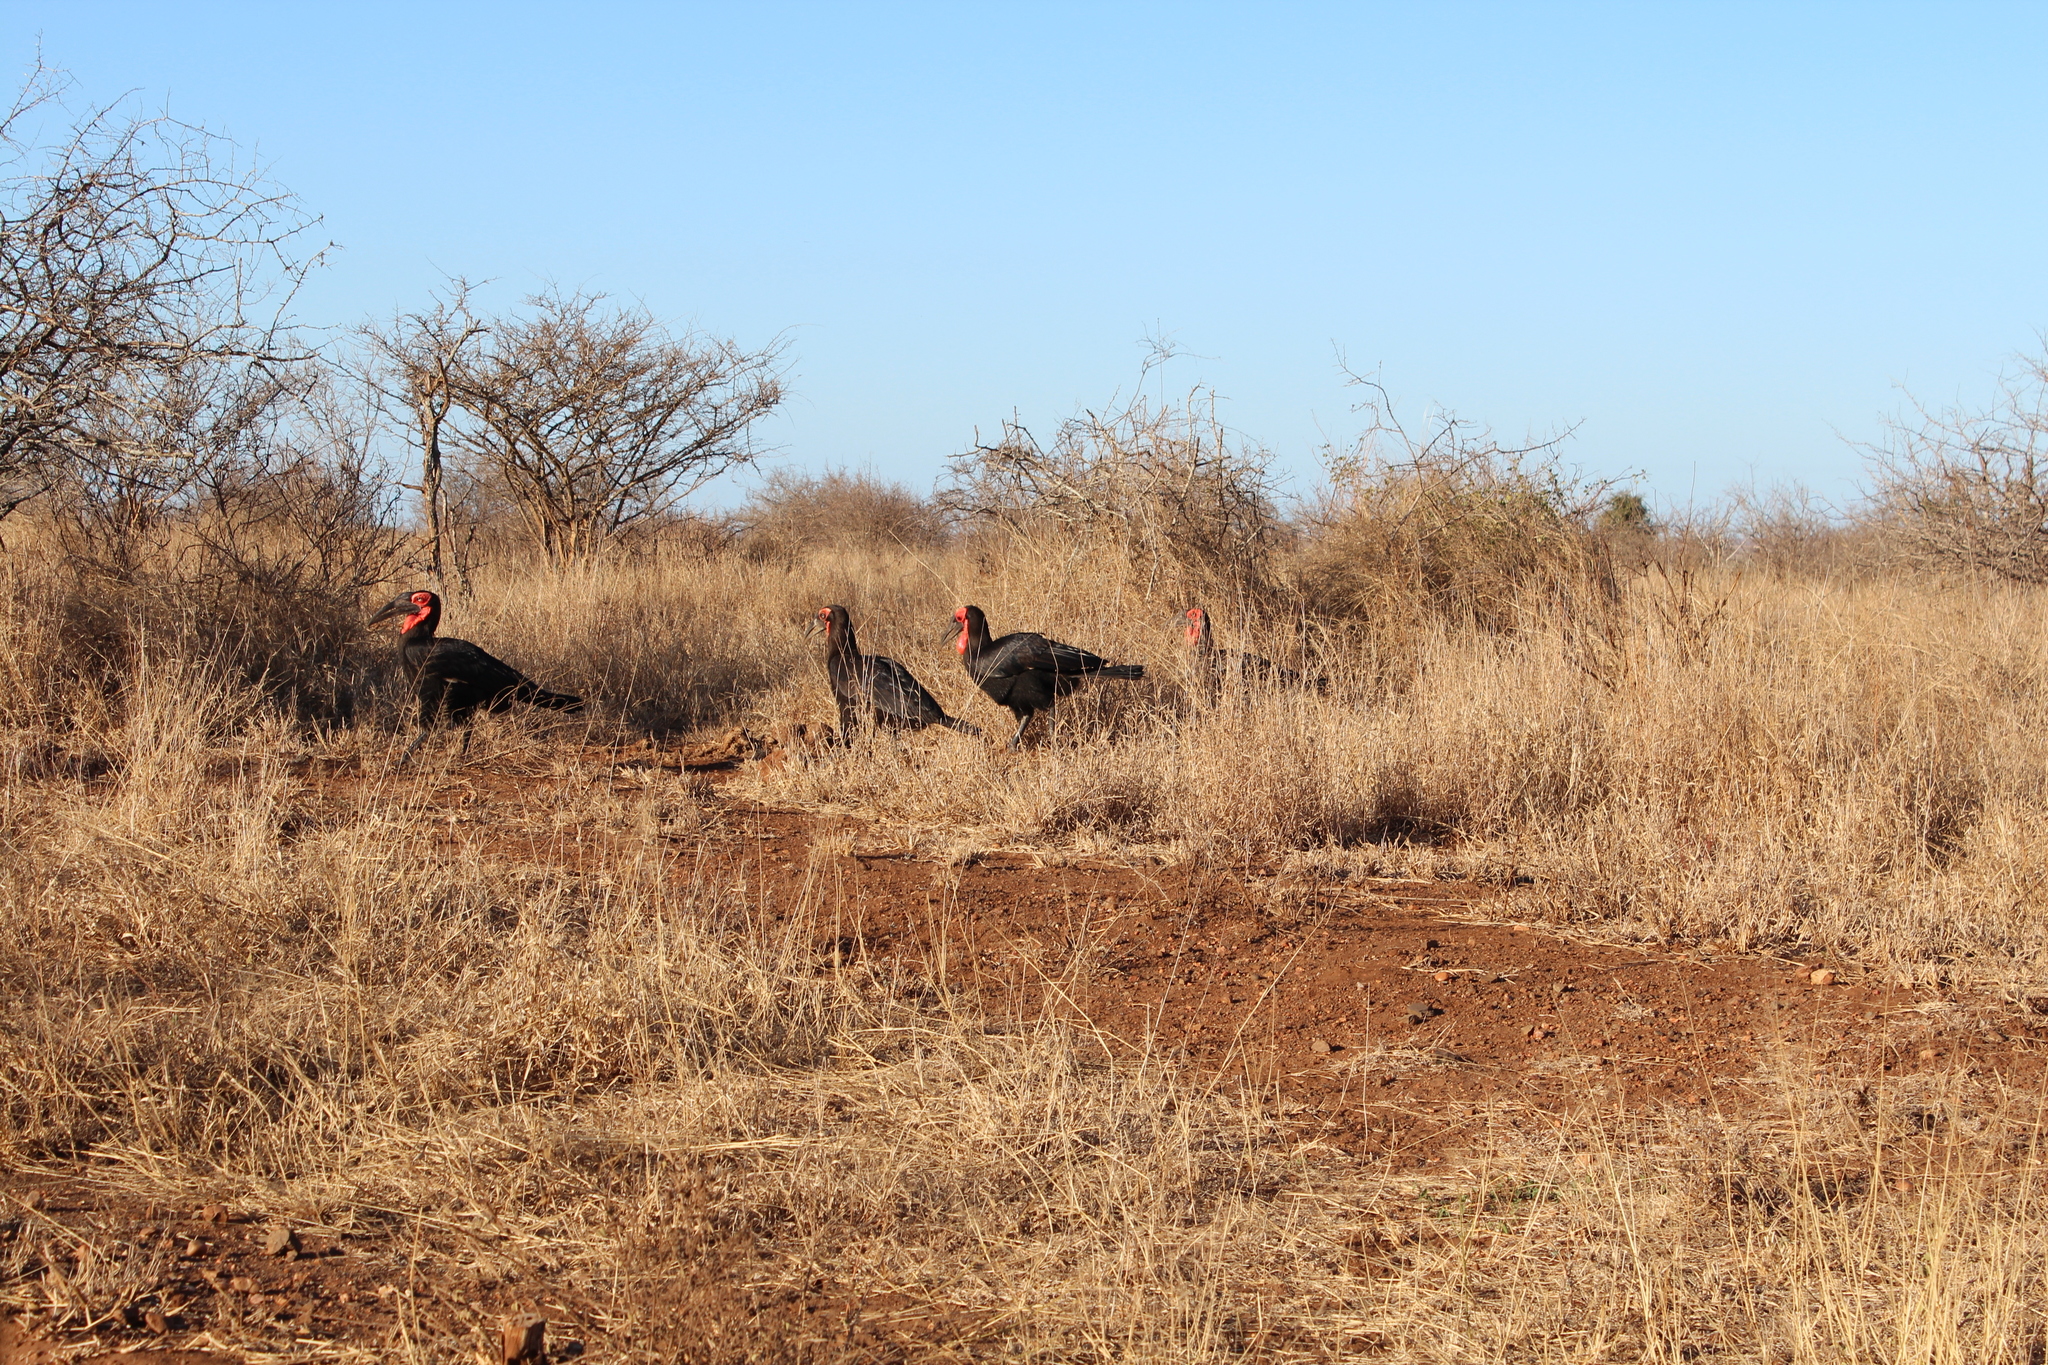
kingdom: Animalia
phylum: Chordata
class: Aves
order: Bucerotiformes
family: Bucorvidae
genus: Bucorvus
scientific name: Bucorvus leadbeateri
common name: Southern ground-hornbill
